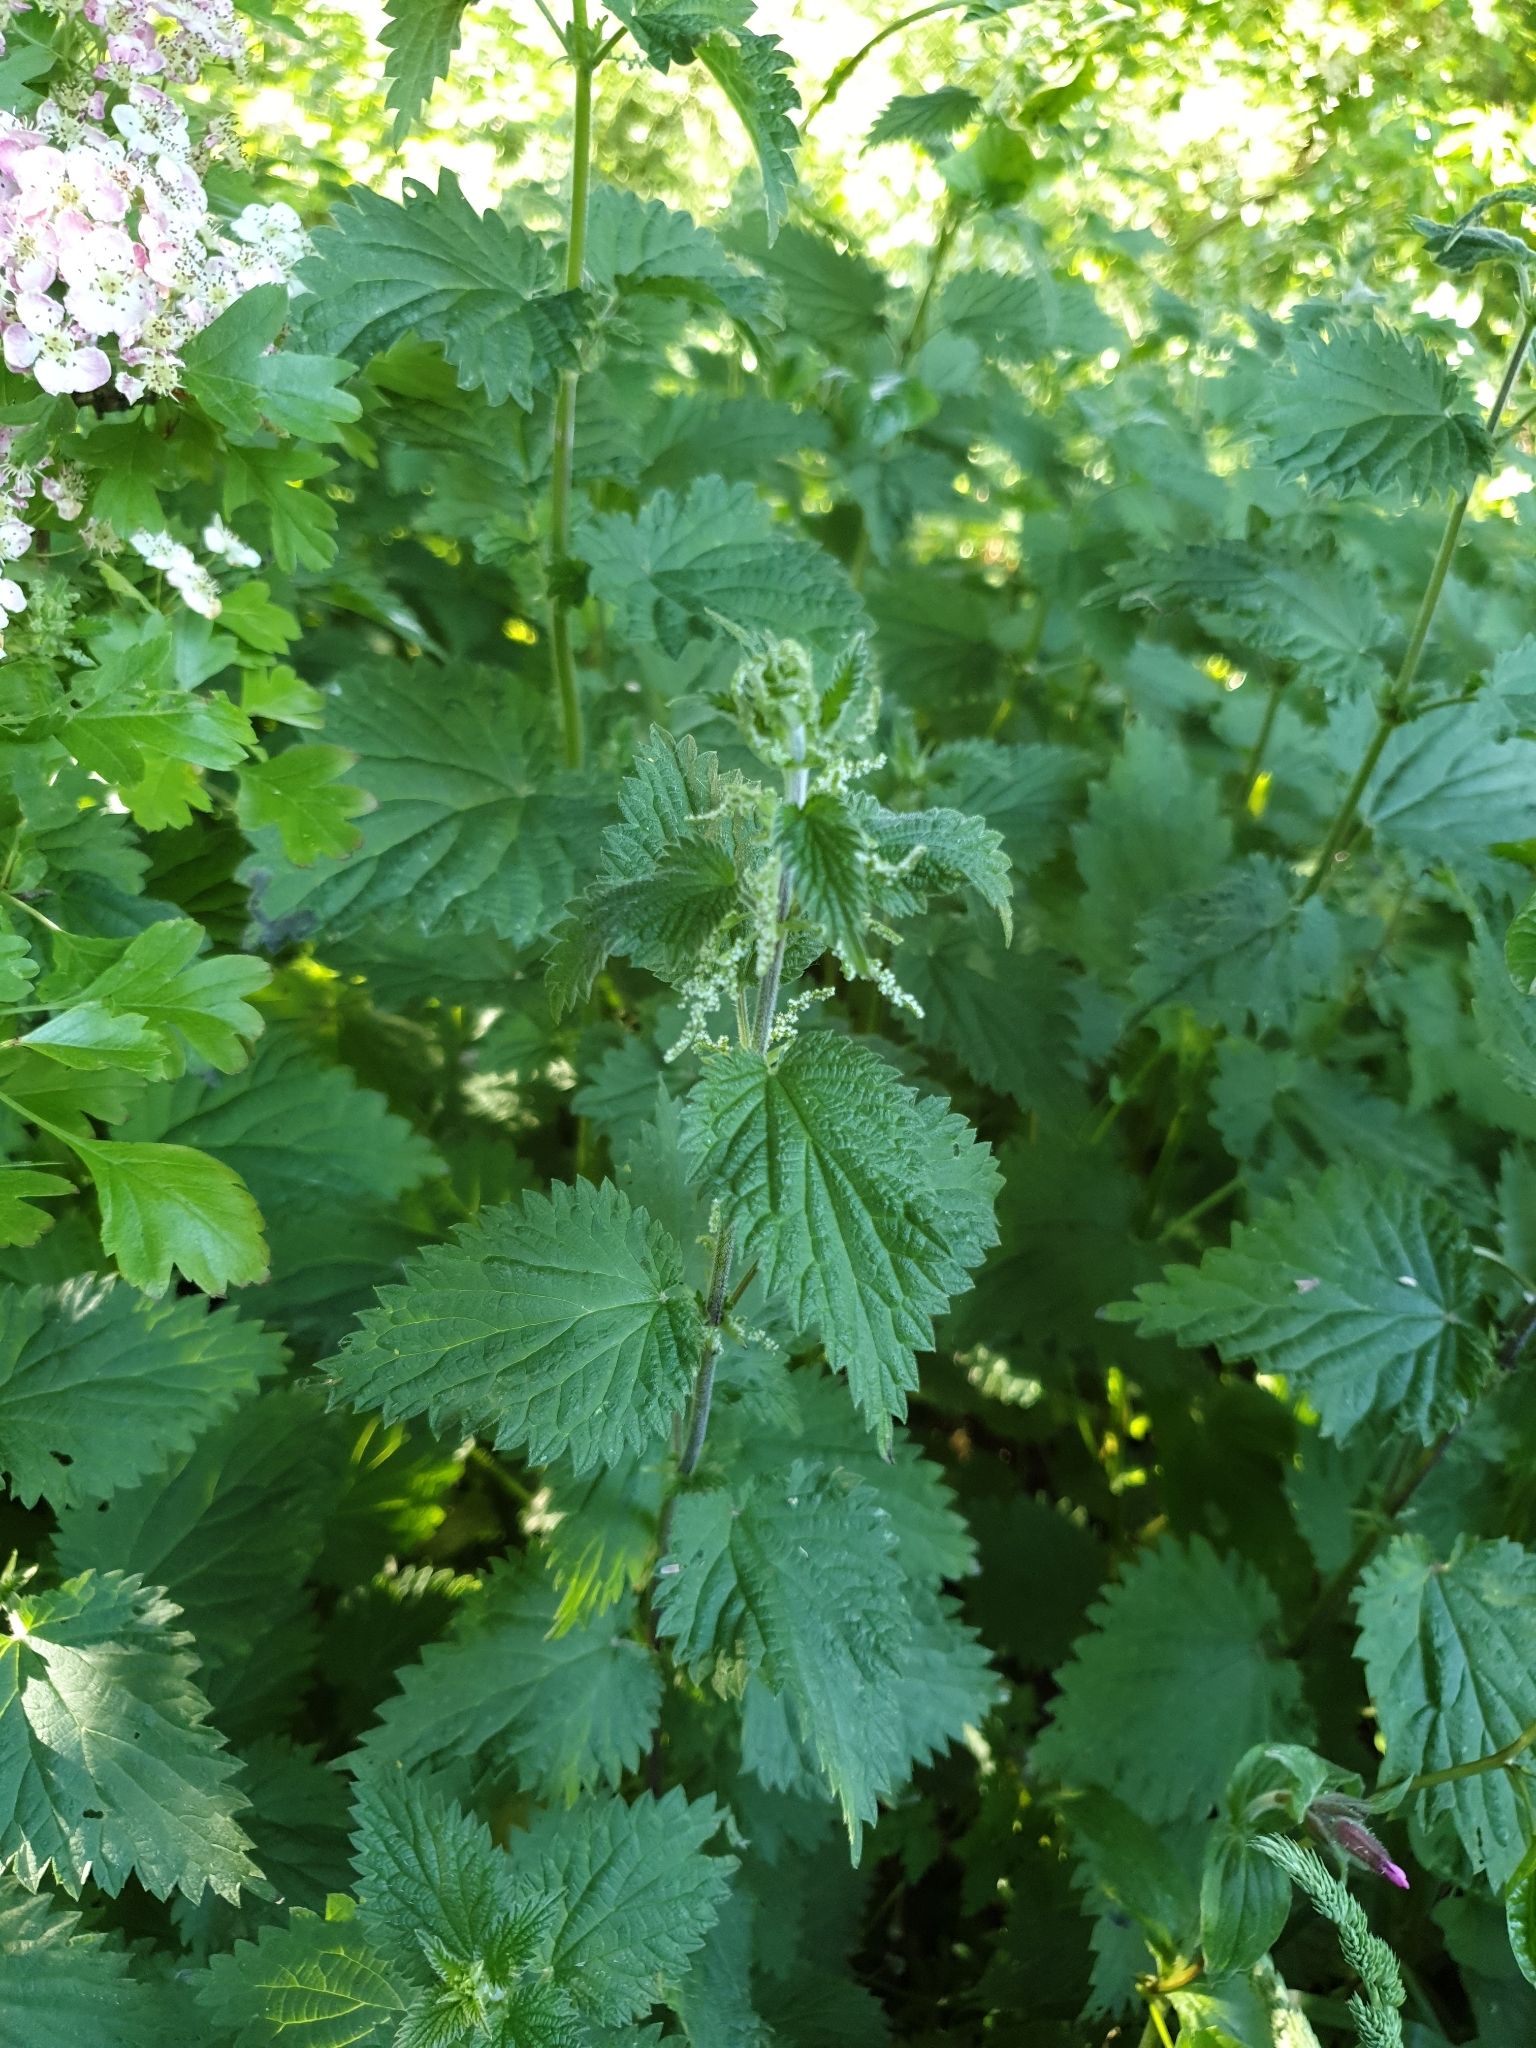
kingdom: Plantae
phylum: Tracheophyta
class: Magnoliopsida
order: Rosales
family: Urticaceae
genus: Urtica
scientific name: Urtica dioica
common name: Common nettle
